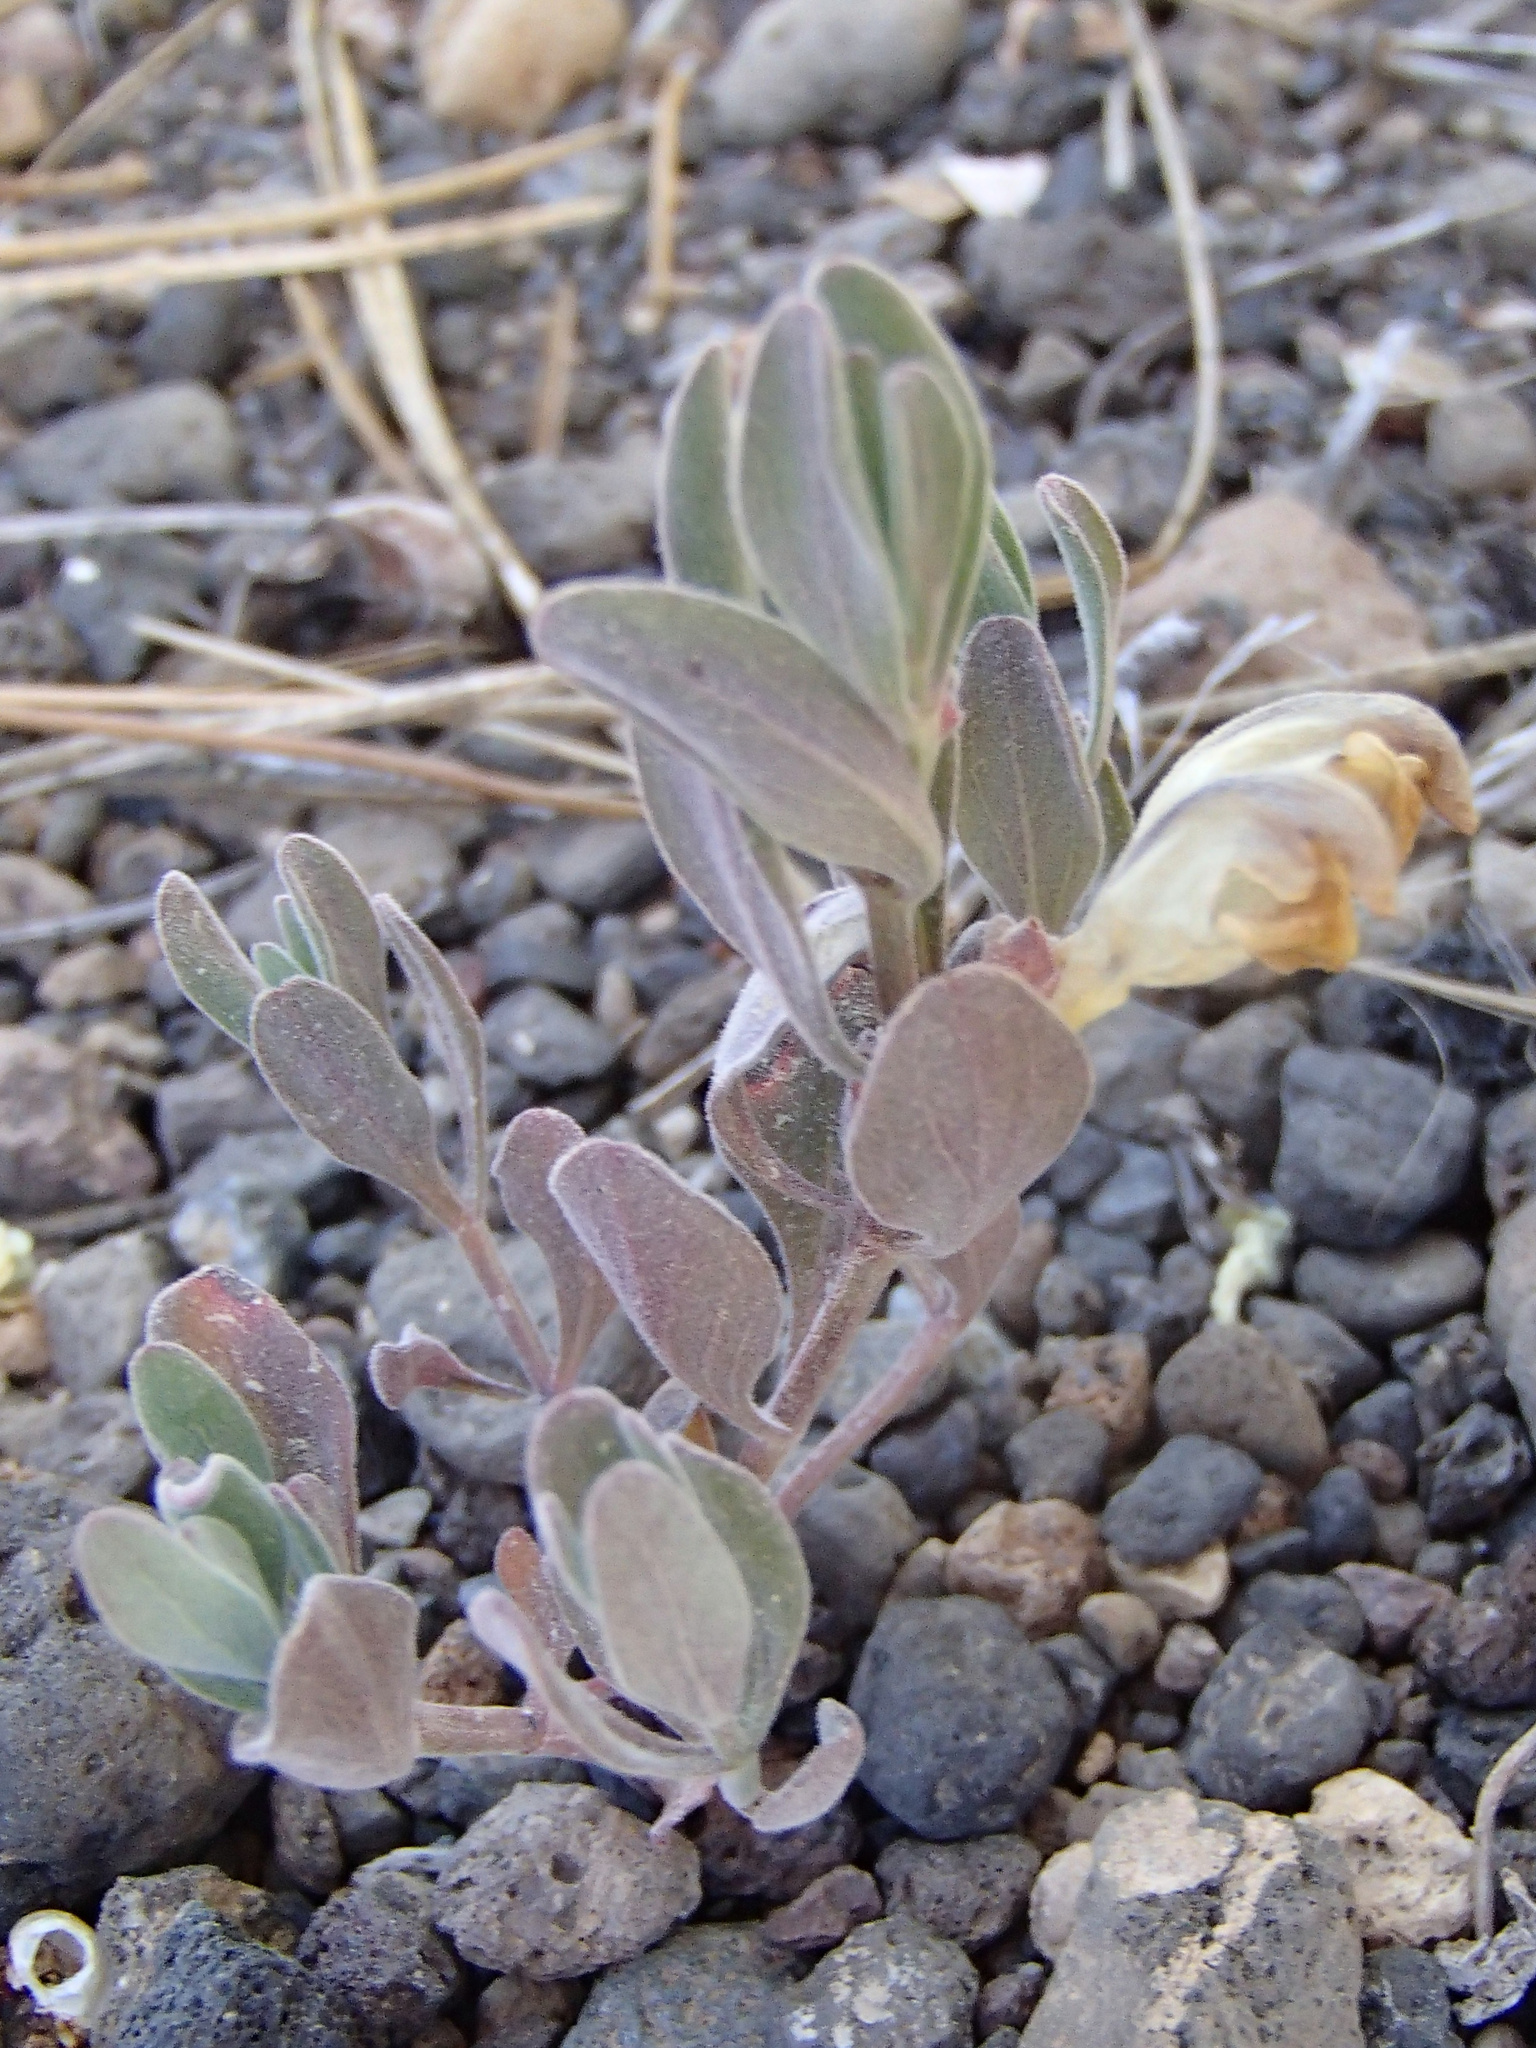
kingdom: Plantae
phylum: Tracheophyta
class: Magnoliopsida
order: Lamiales
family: Lamiaceae
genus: Scutellaria
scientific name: Scutellaria nana
